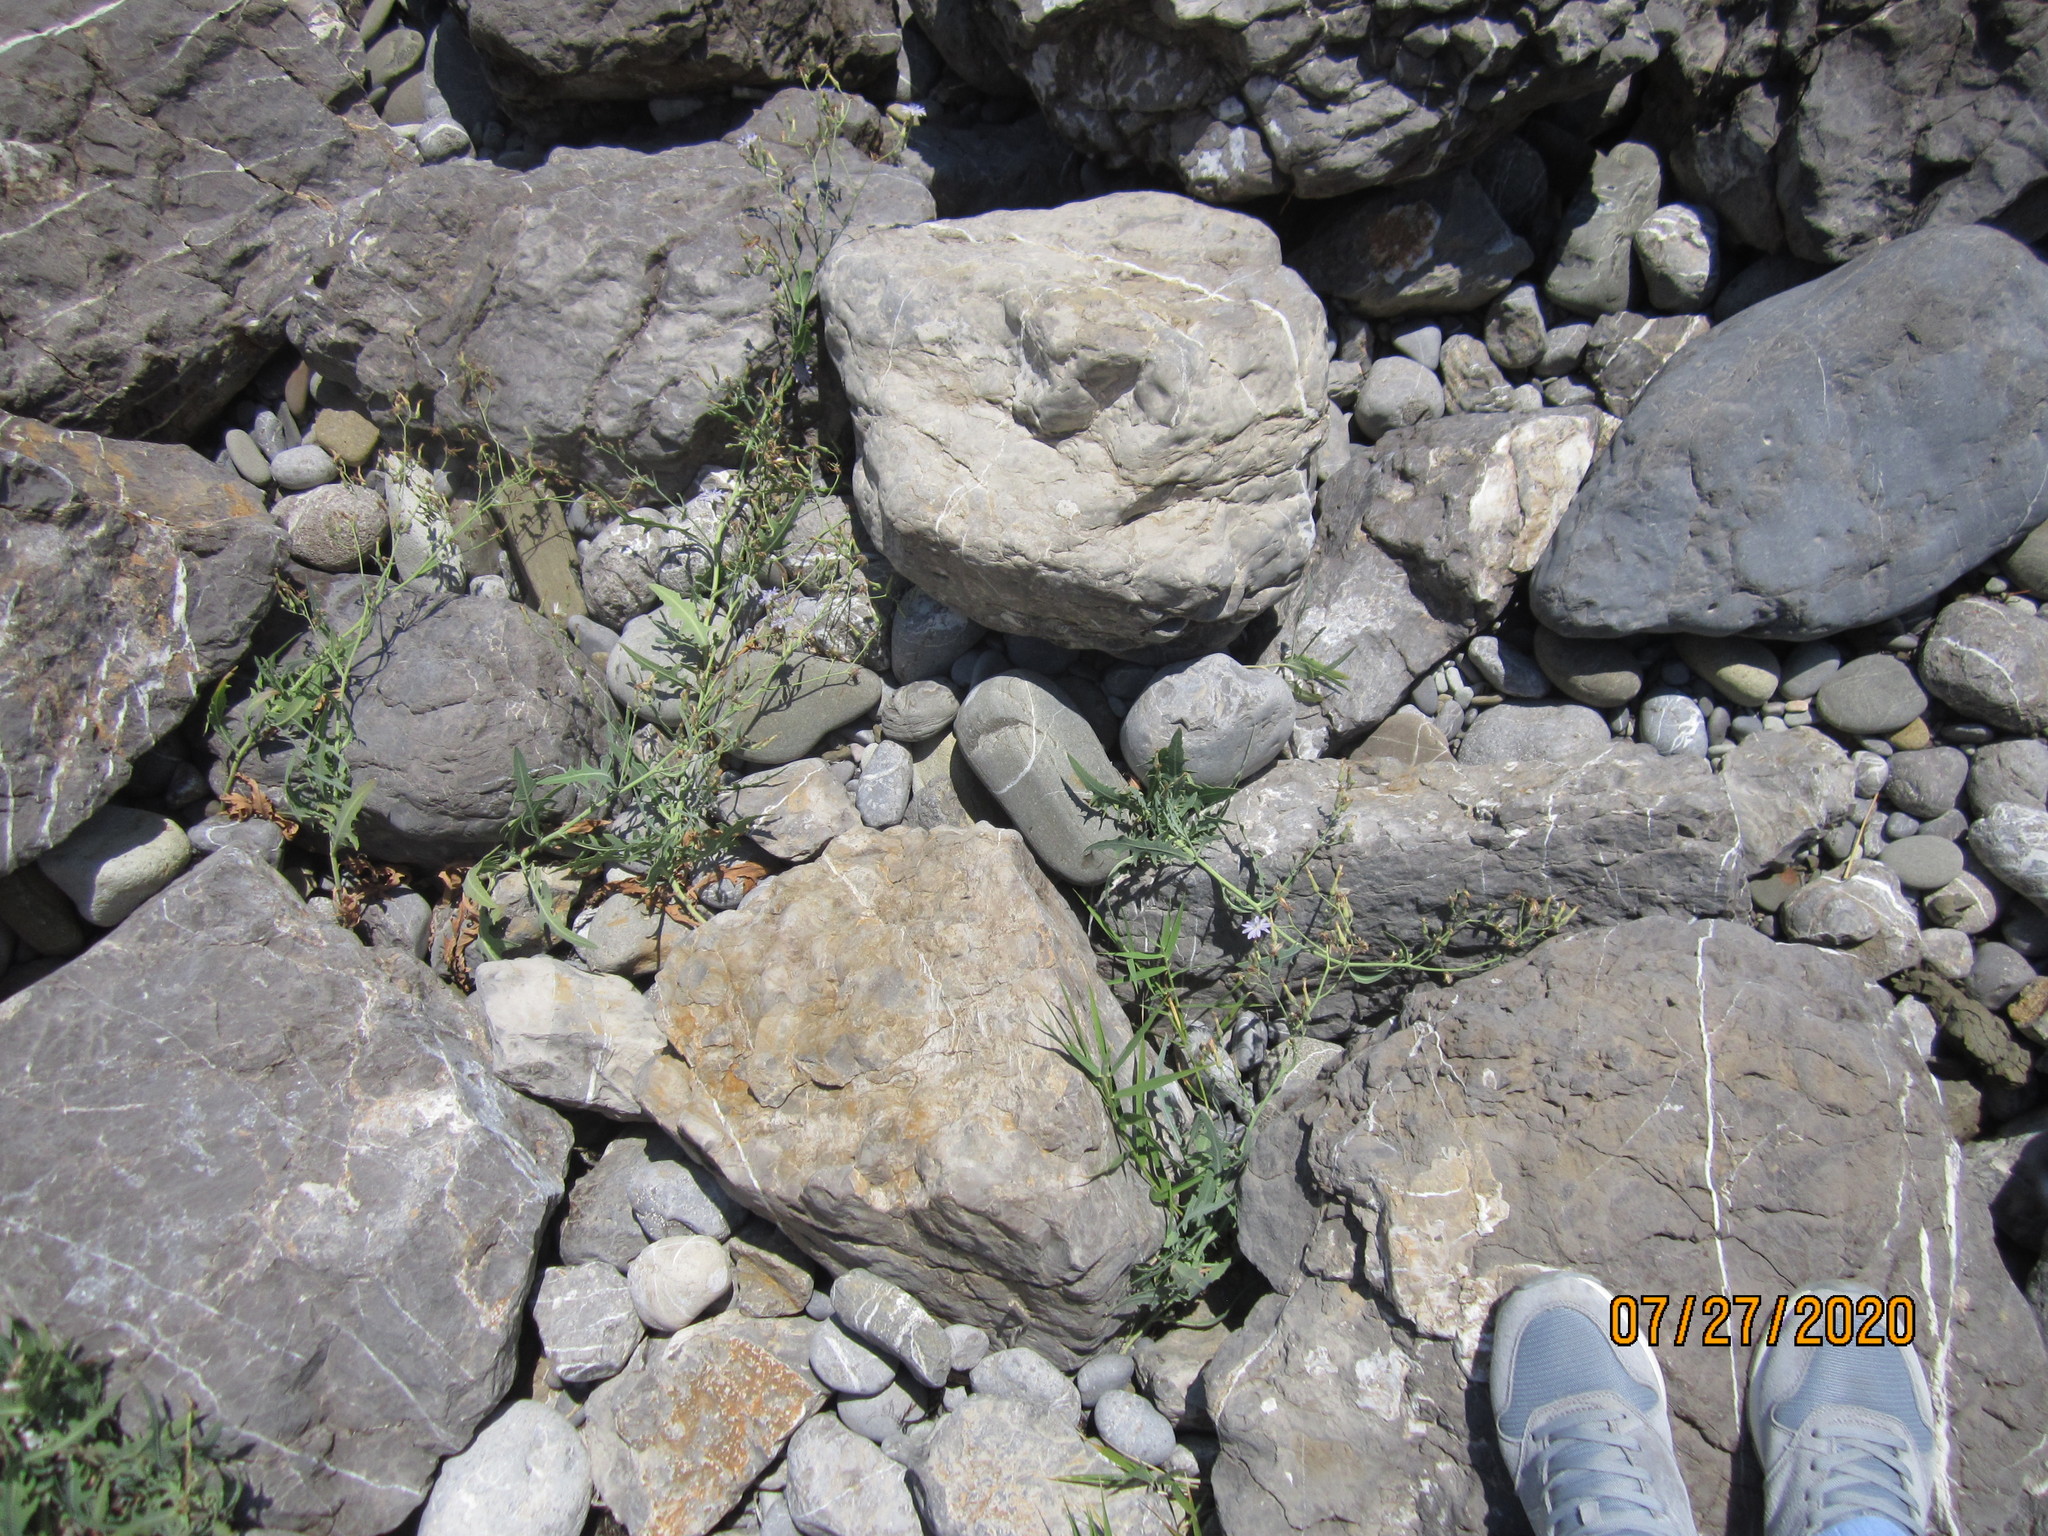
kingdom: Plantae
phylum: Tracheophyta
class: Magnoliopsida
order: Asterales
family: Asteraceae
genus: Lactuca
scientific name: Lactuca tatarica
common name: Blue lettuce
